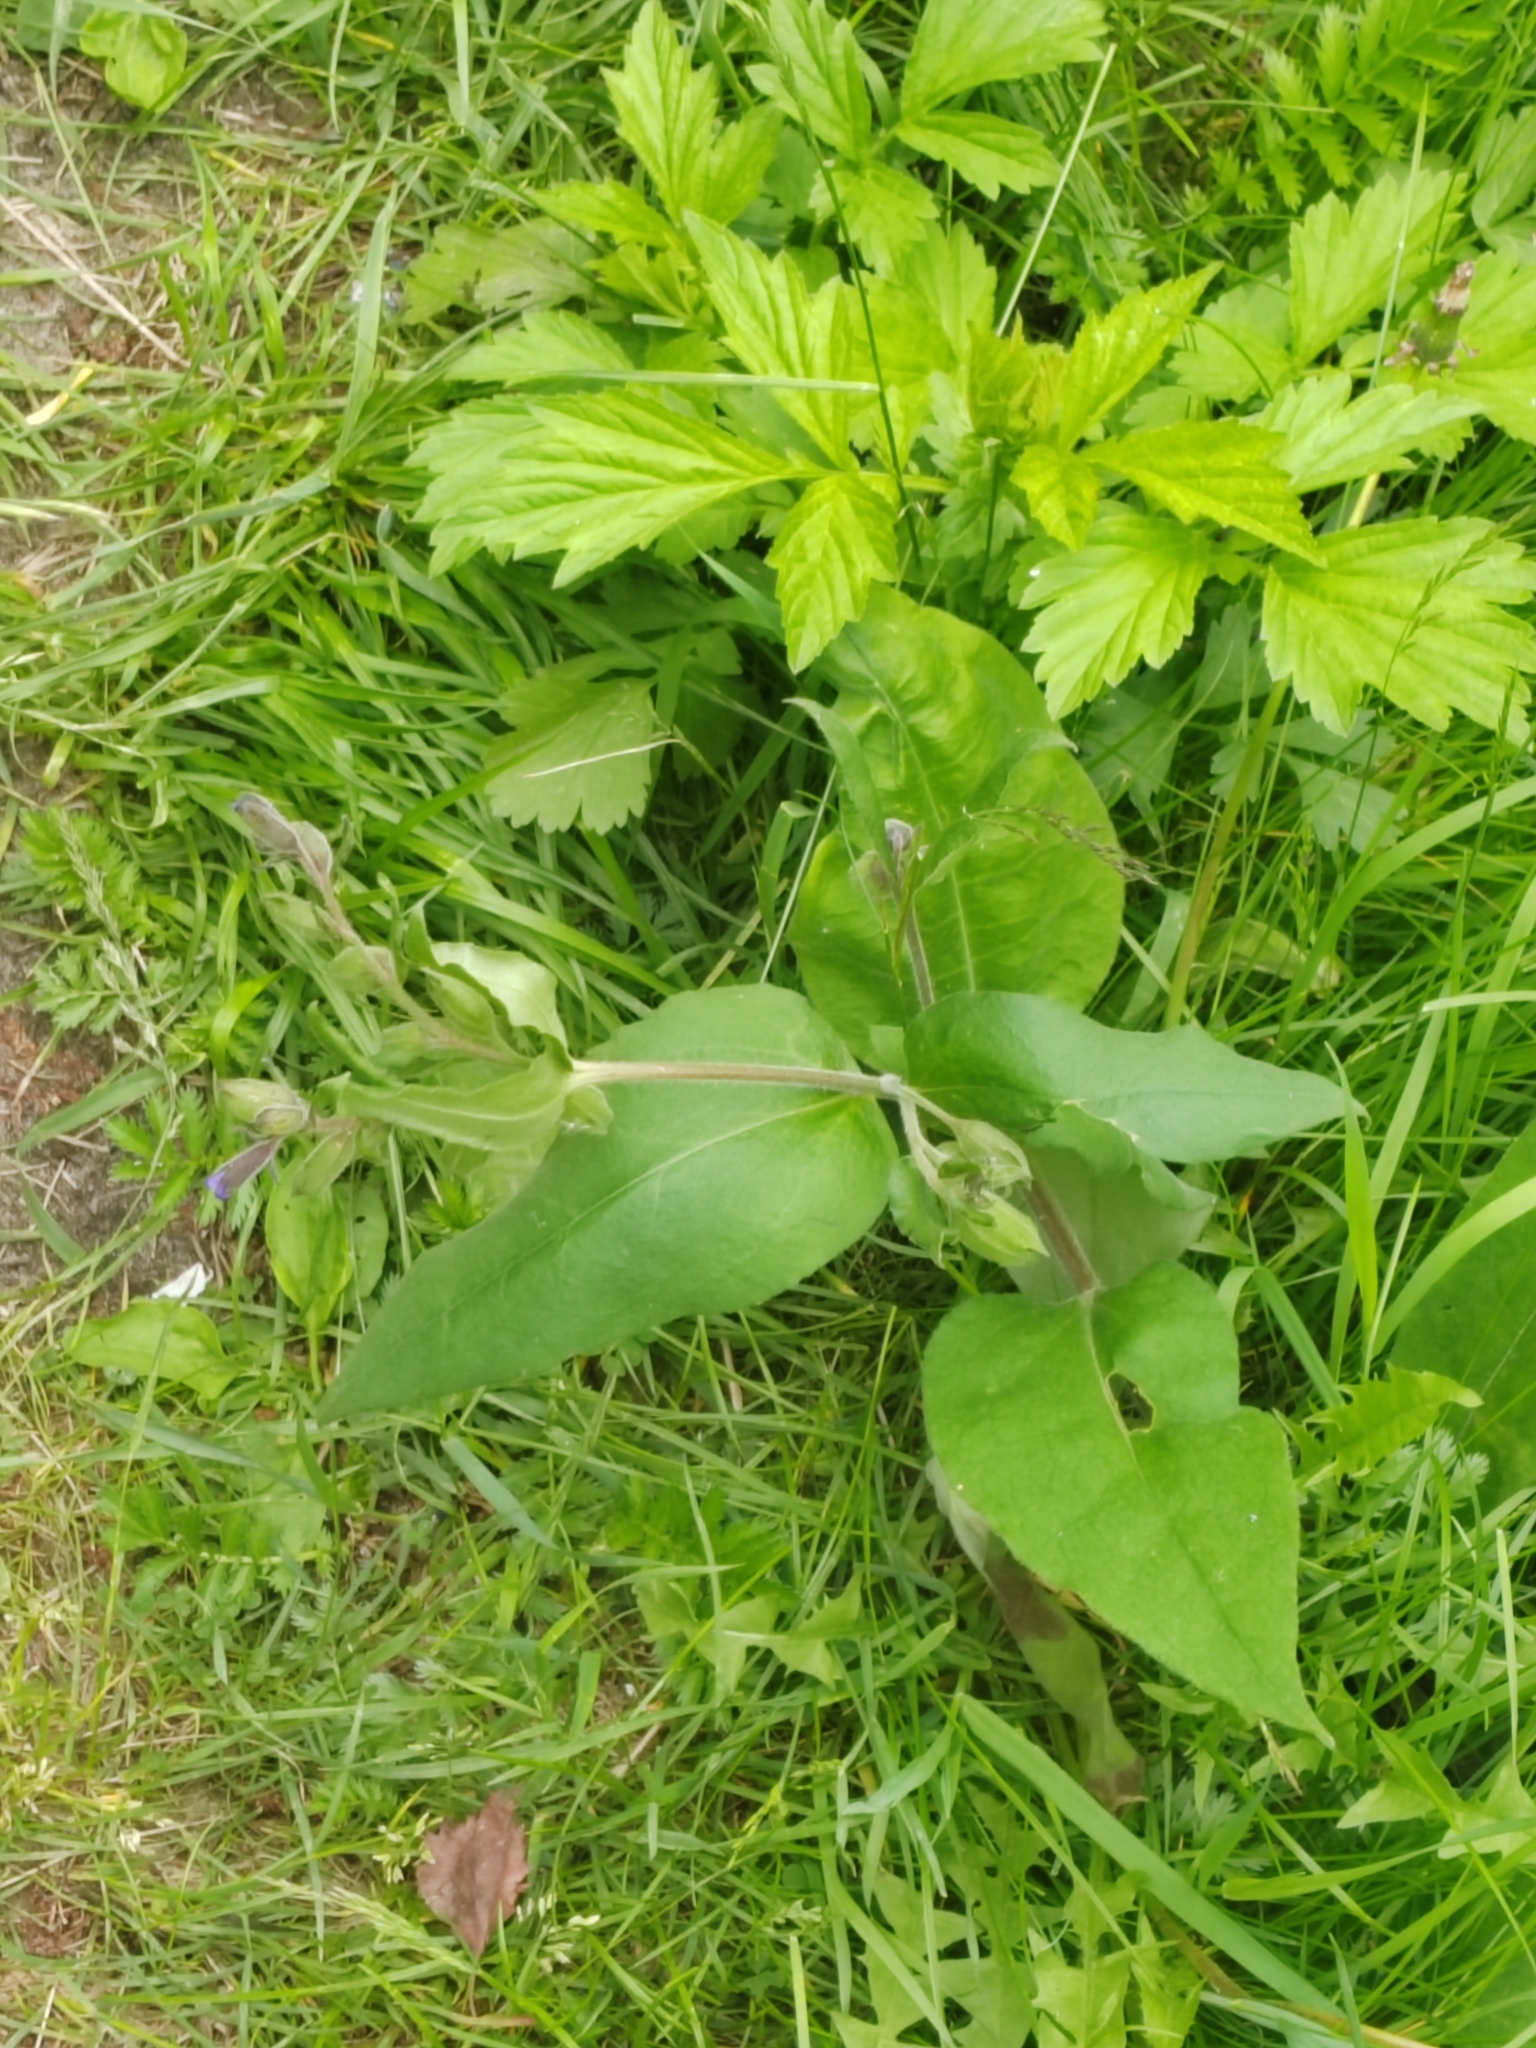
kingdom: Plantae
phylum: Tracheophyta
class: Magnoliopsida
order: Boraginales
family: Boraginaceae
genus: Pulmonaria
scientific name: Pulmonaria mollis
